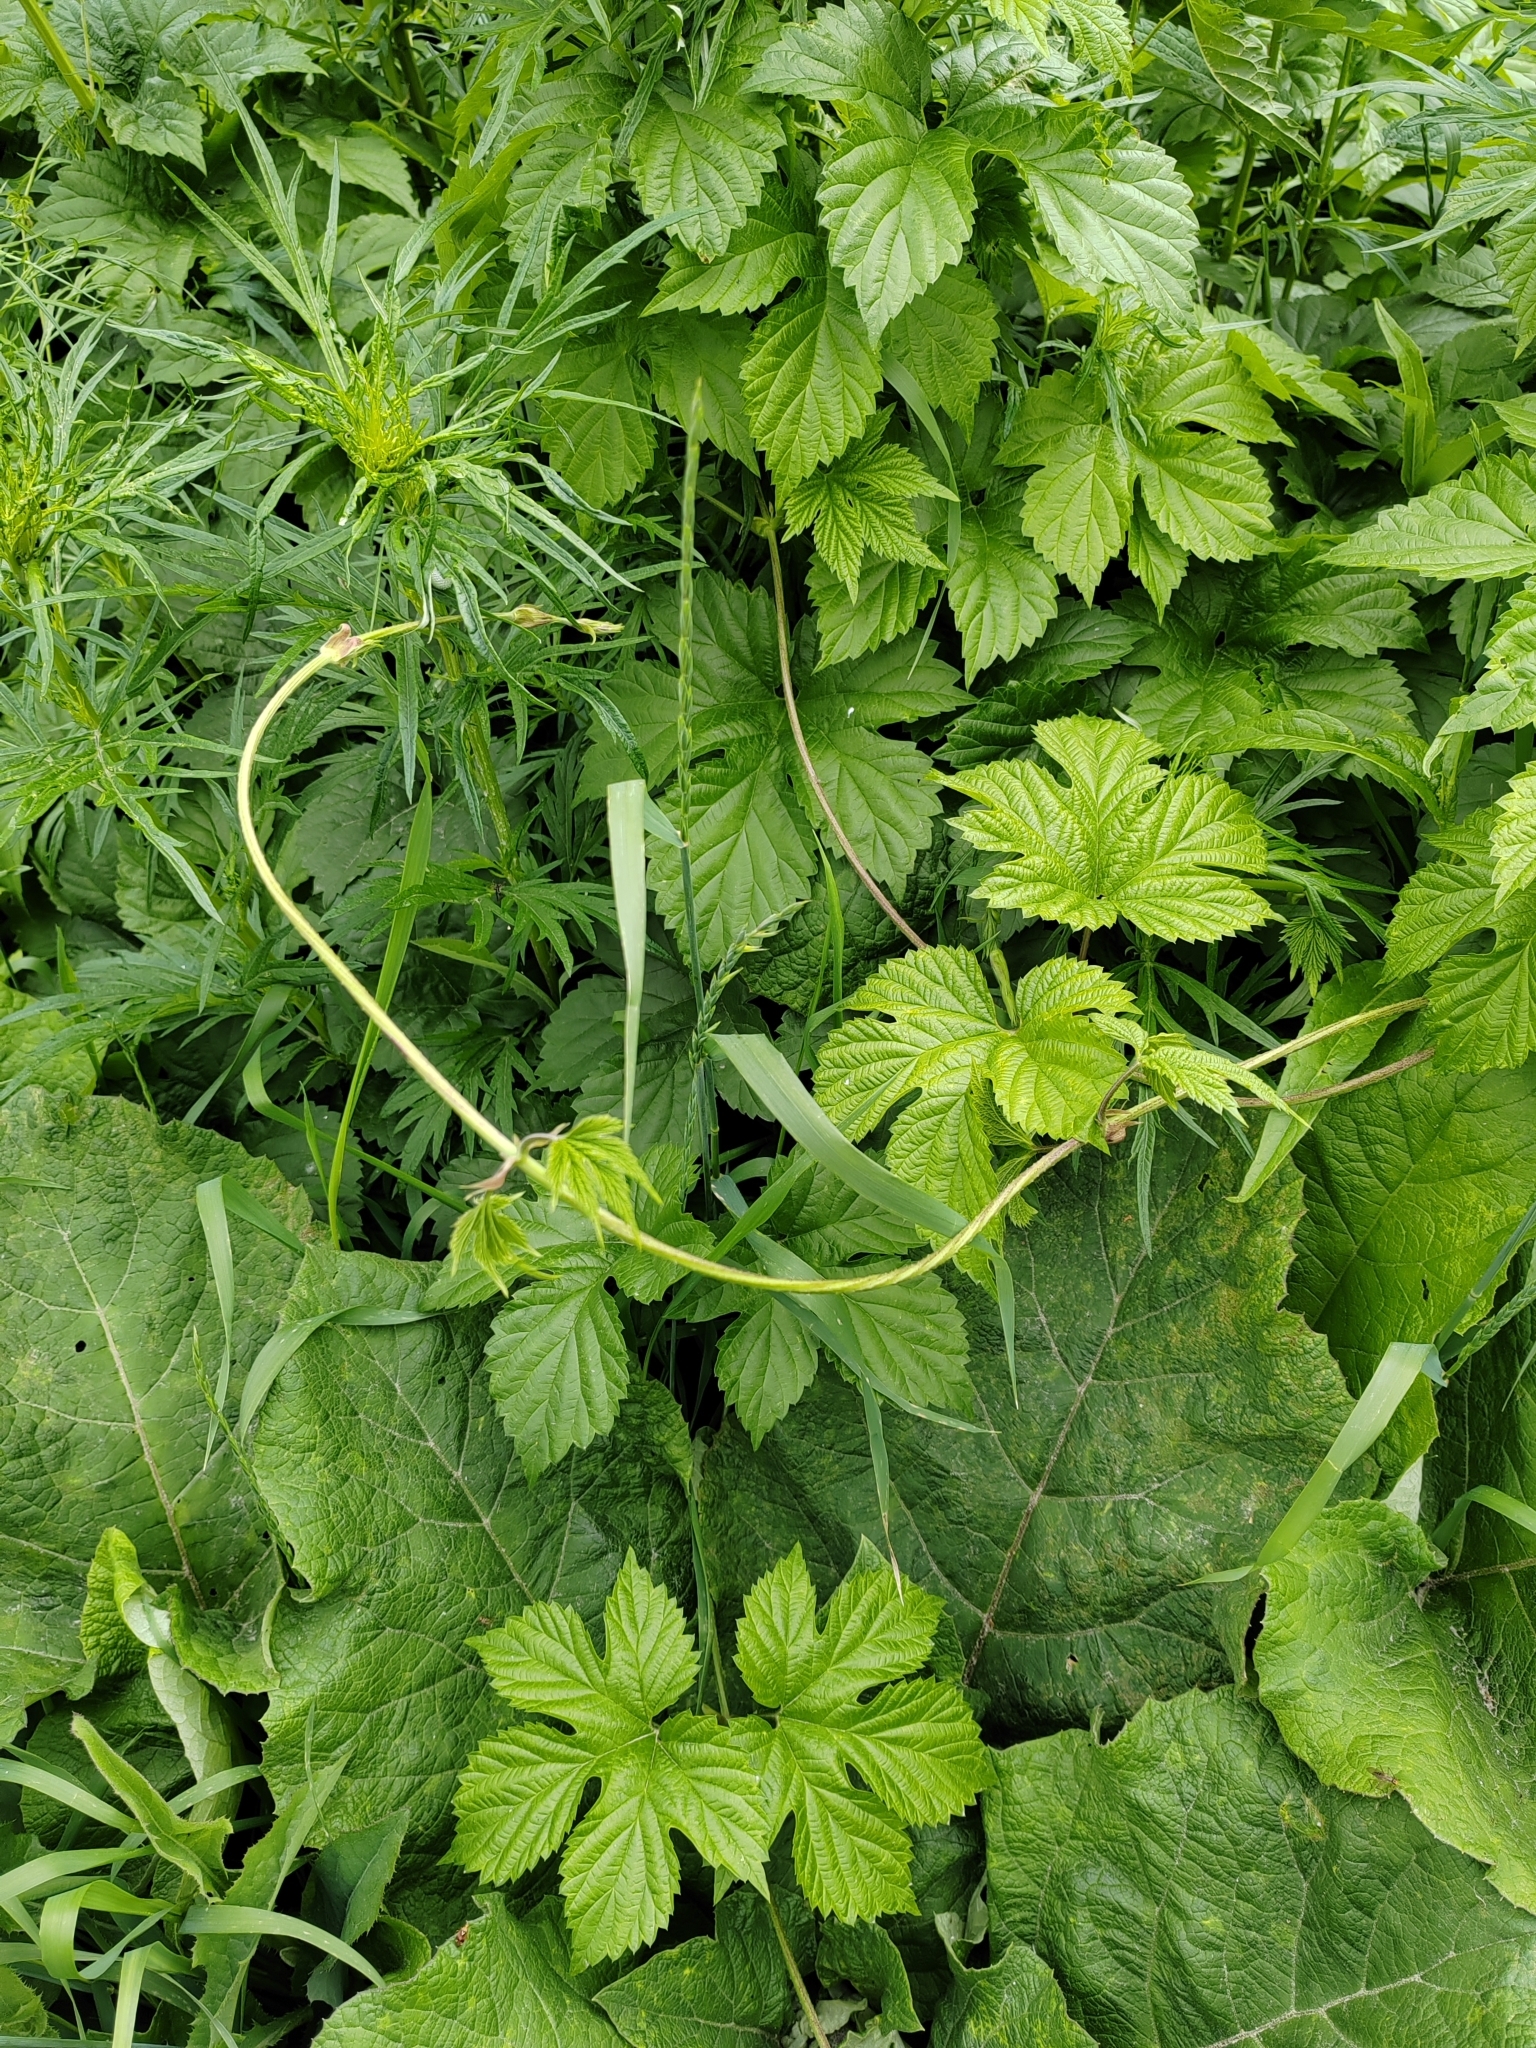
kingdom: Plantae
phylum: Tracheophyta
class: Magnoliopsida
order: Rosales
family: Cannabaceae
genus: Humulus
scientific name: Humulus lupulus
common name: Hop
